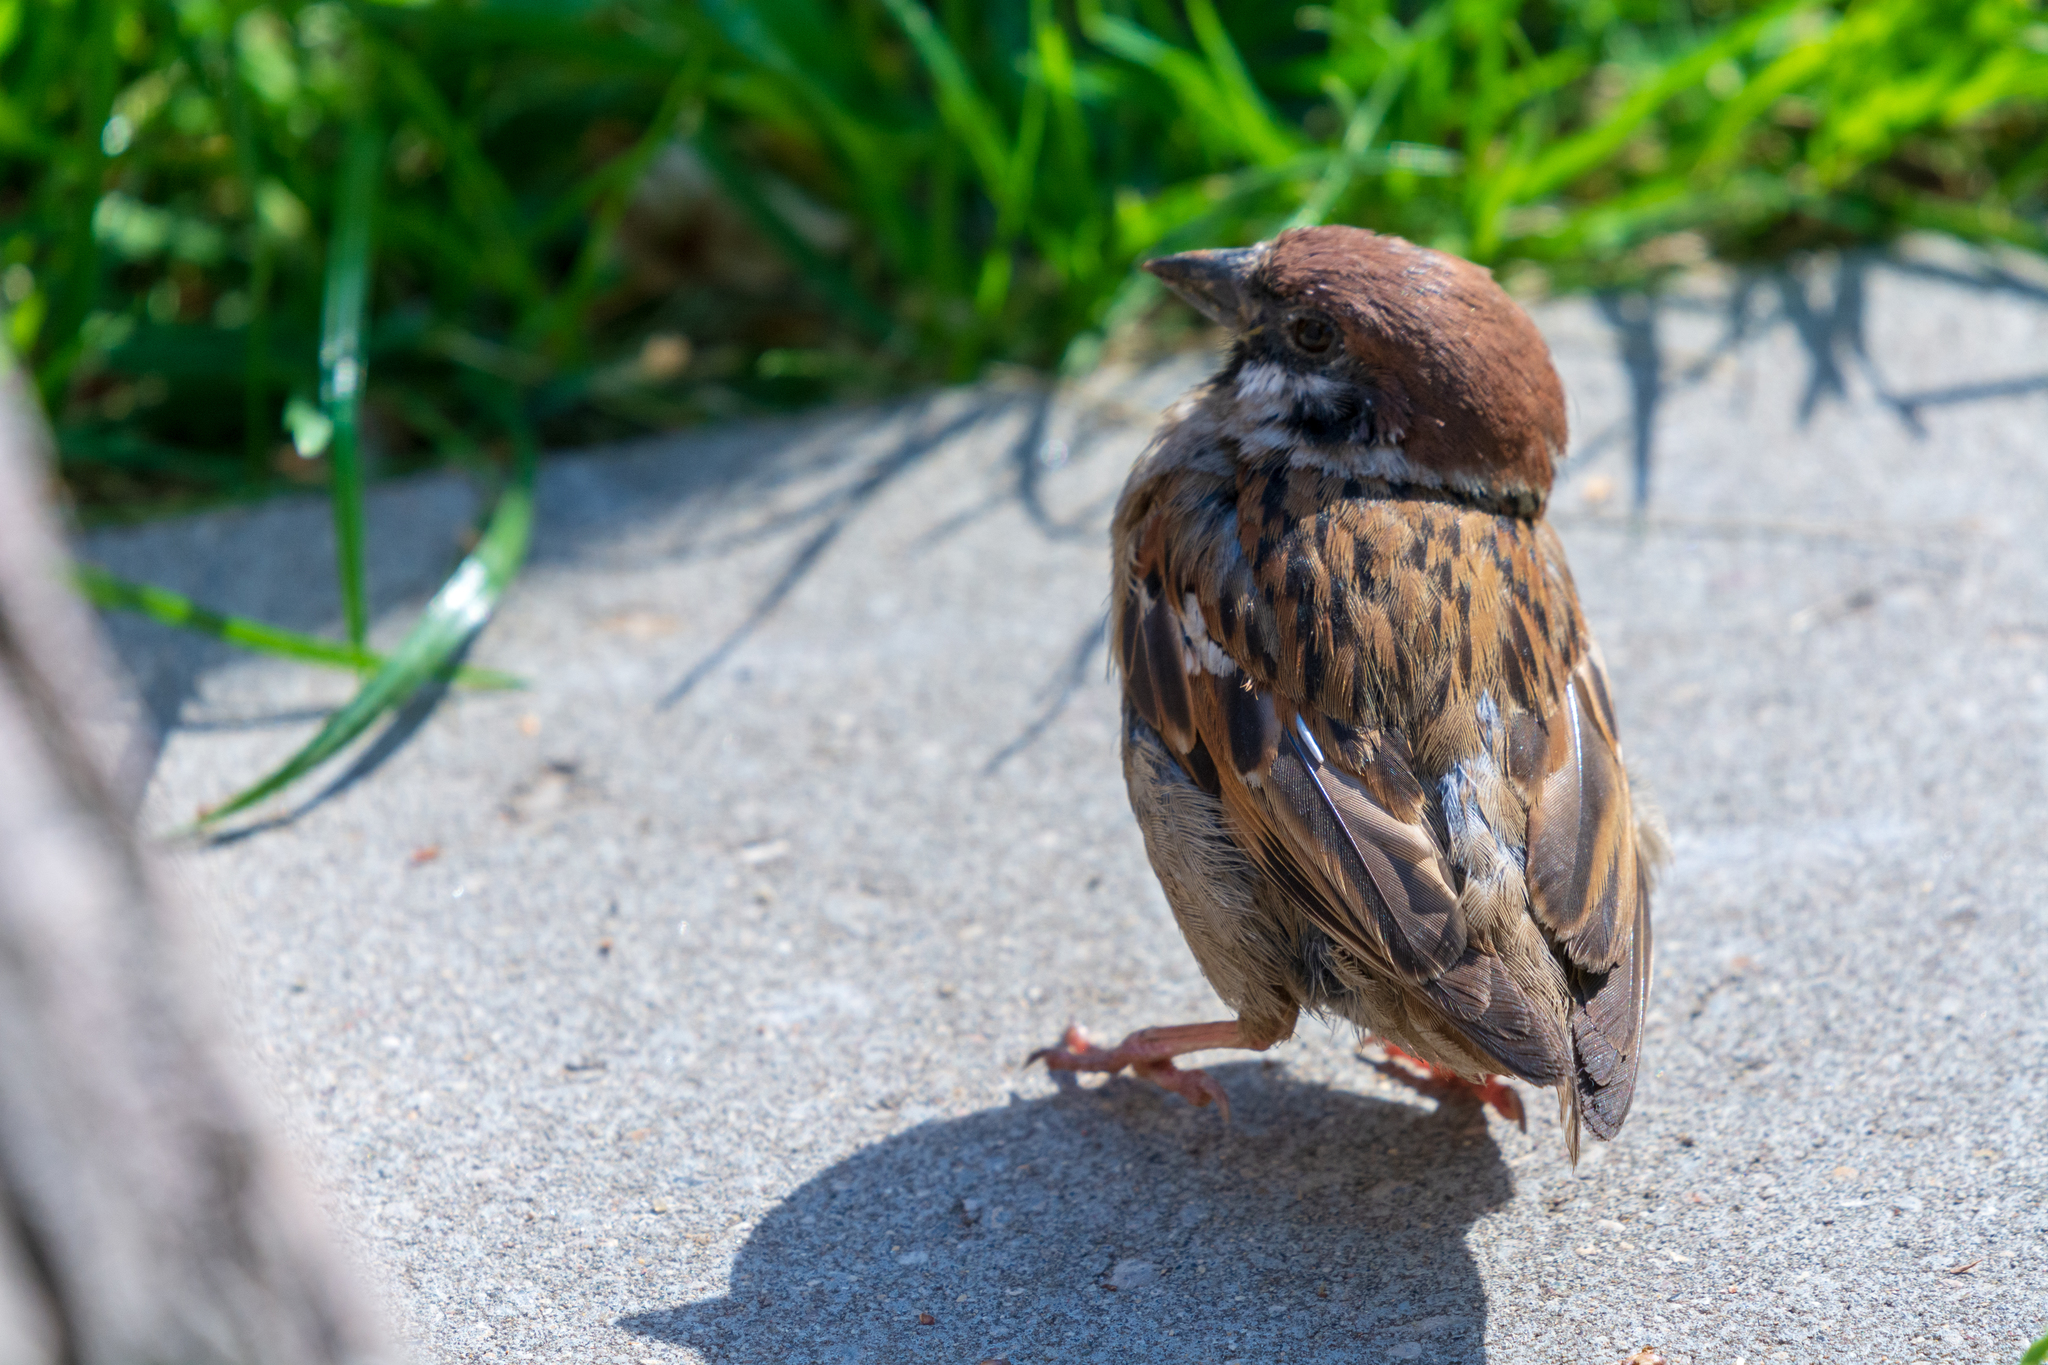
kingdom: Animalia
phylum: Chordata
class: Aves
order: Passeriformes
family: Passeridae
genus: Passer
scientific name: Passer montanus
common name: Eurasian tree sparrow
